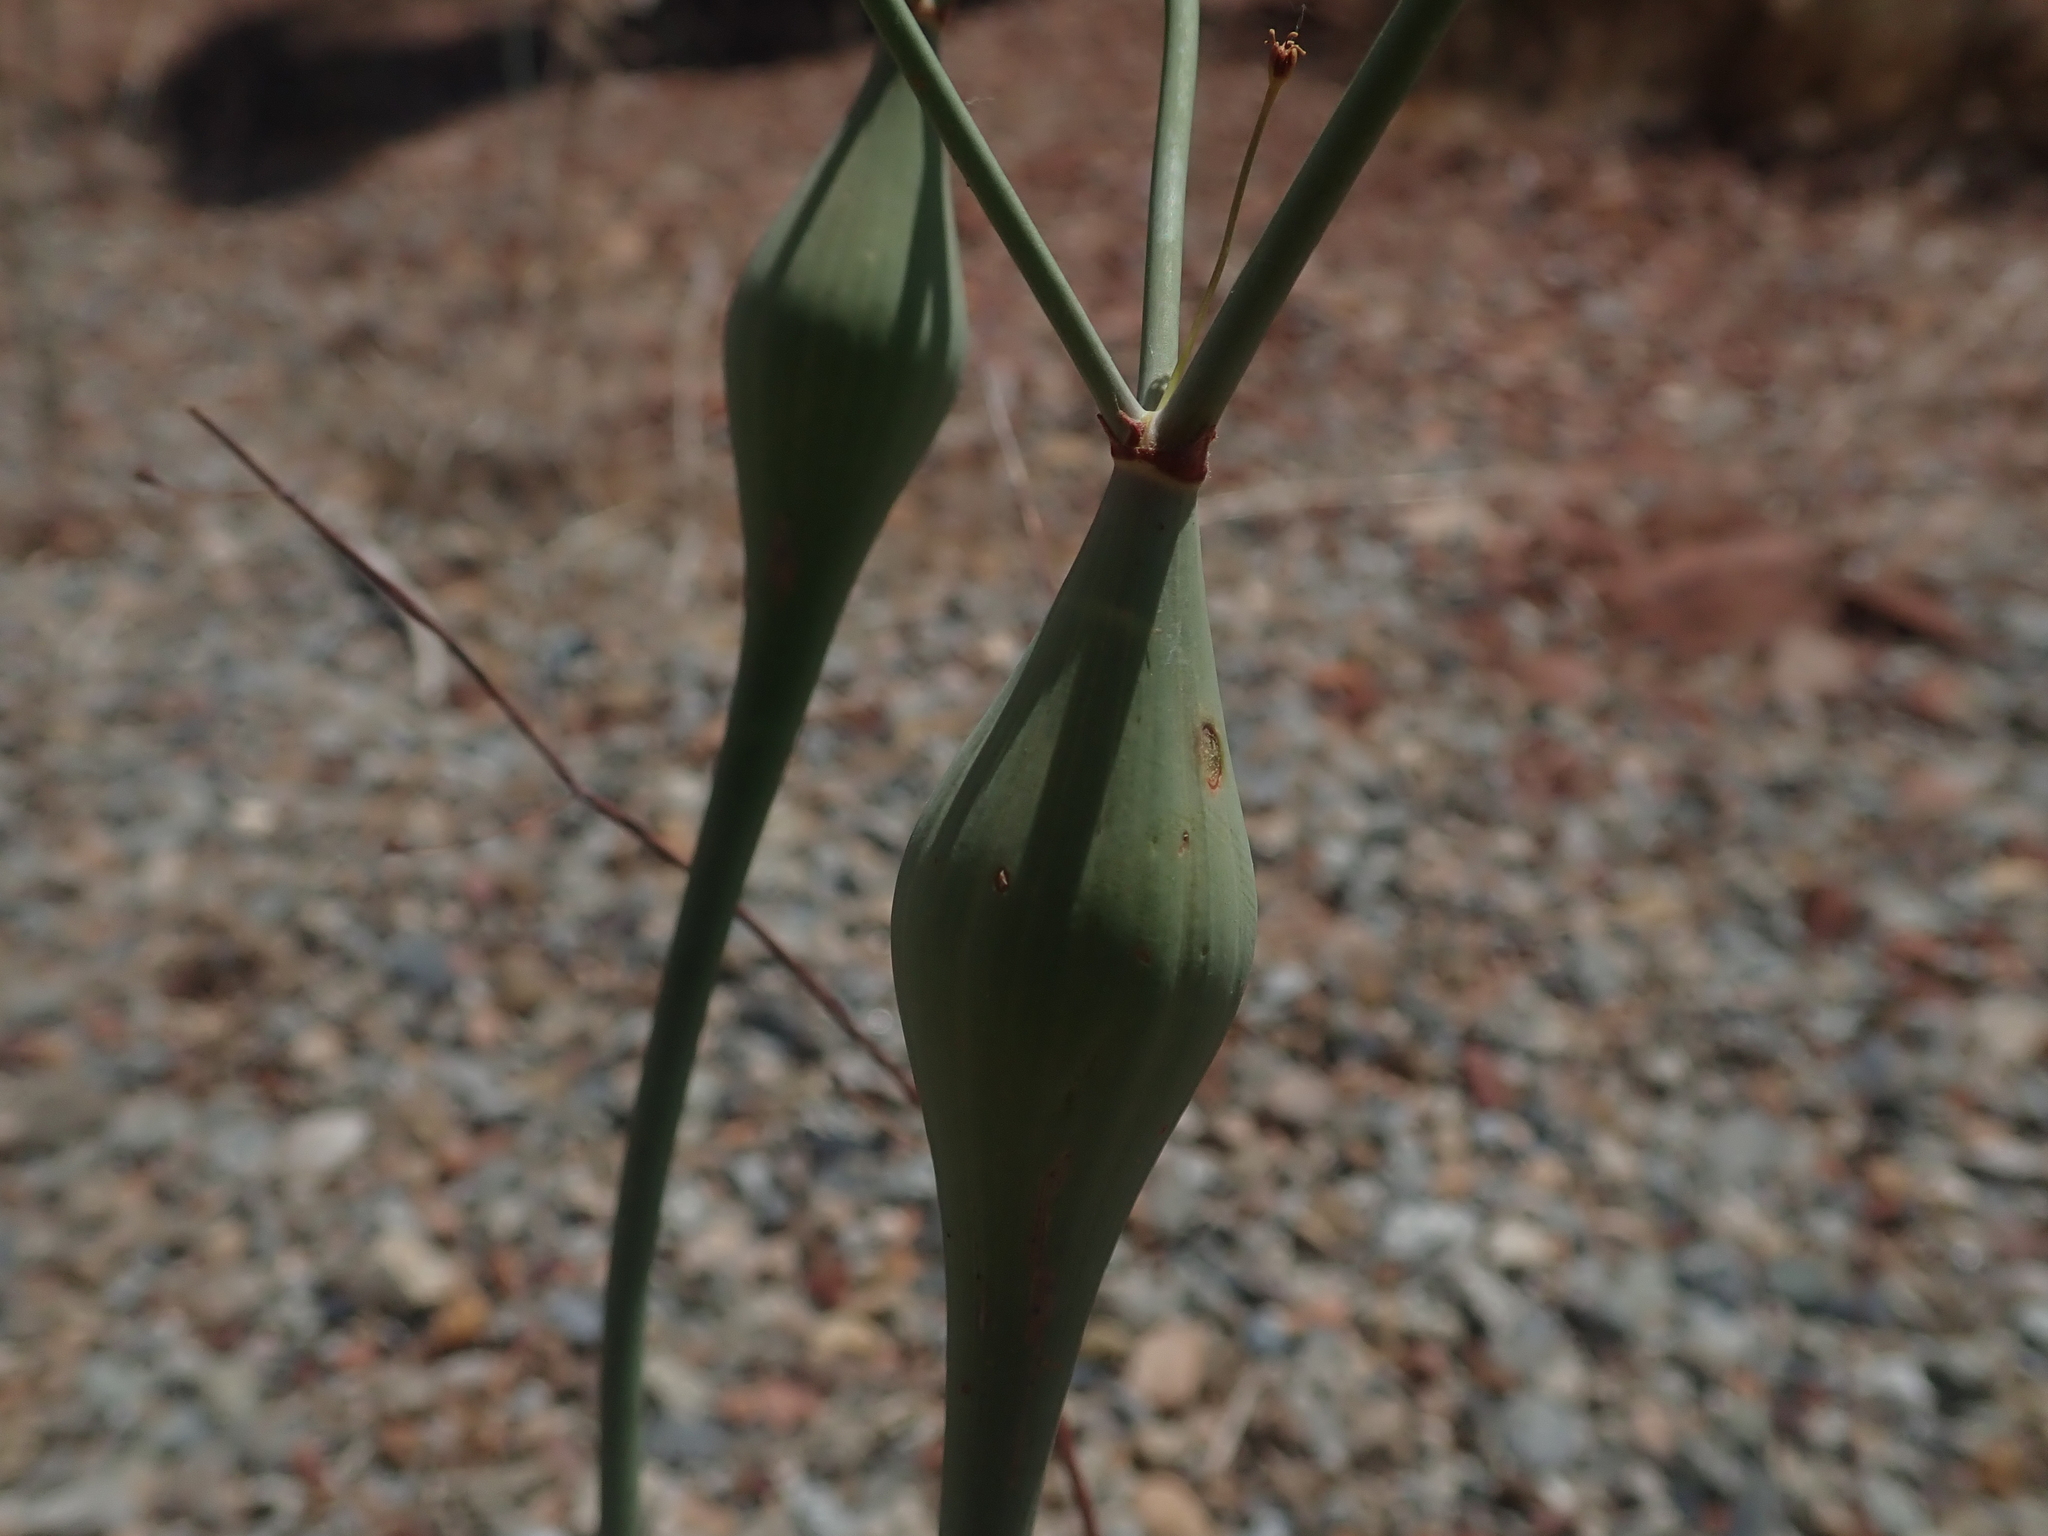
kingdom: Plantae
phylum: Tracheophyta
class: Magnoliopsida
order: Caryophyllales
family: Polygonaceae
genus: Eriogonum
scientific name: Eriogonum inflatum
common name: Desert trumpet
